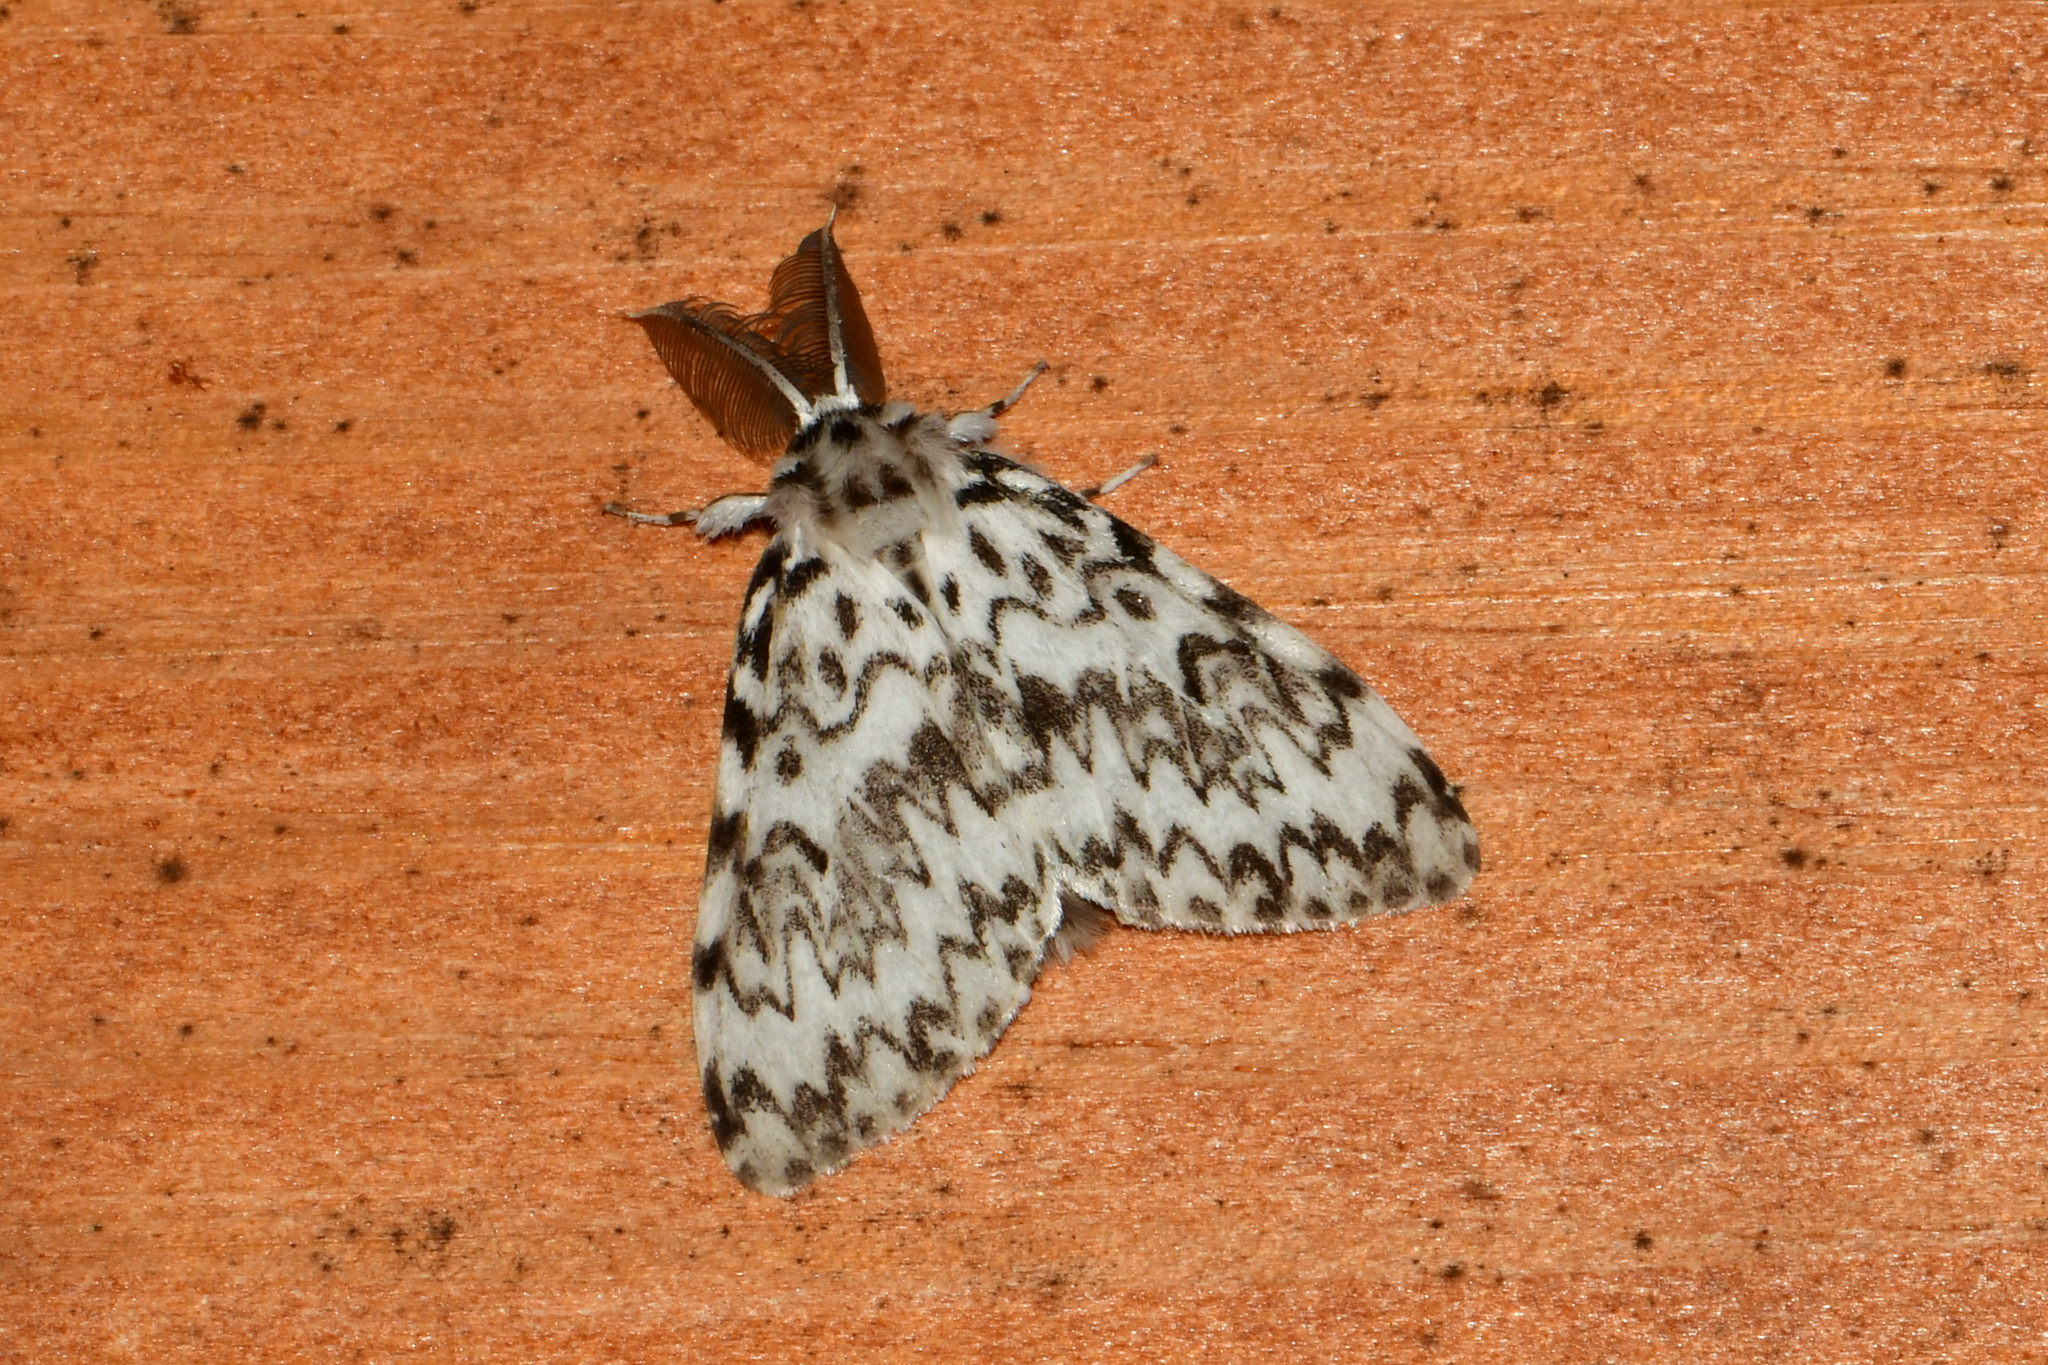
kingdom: Animalia
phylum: Arthropoda
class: Insecta
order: Lepidoptera
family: Erebidae
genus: Lymantria
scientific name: Lymantria monacha
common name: Black arches
